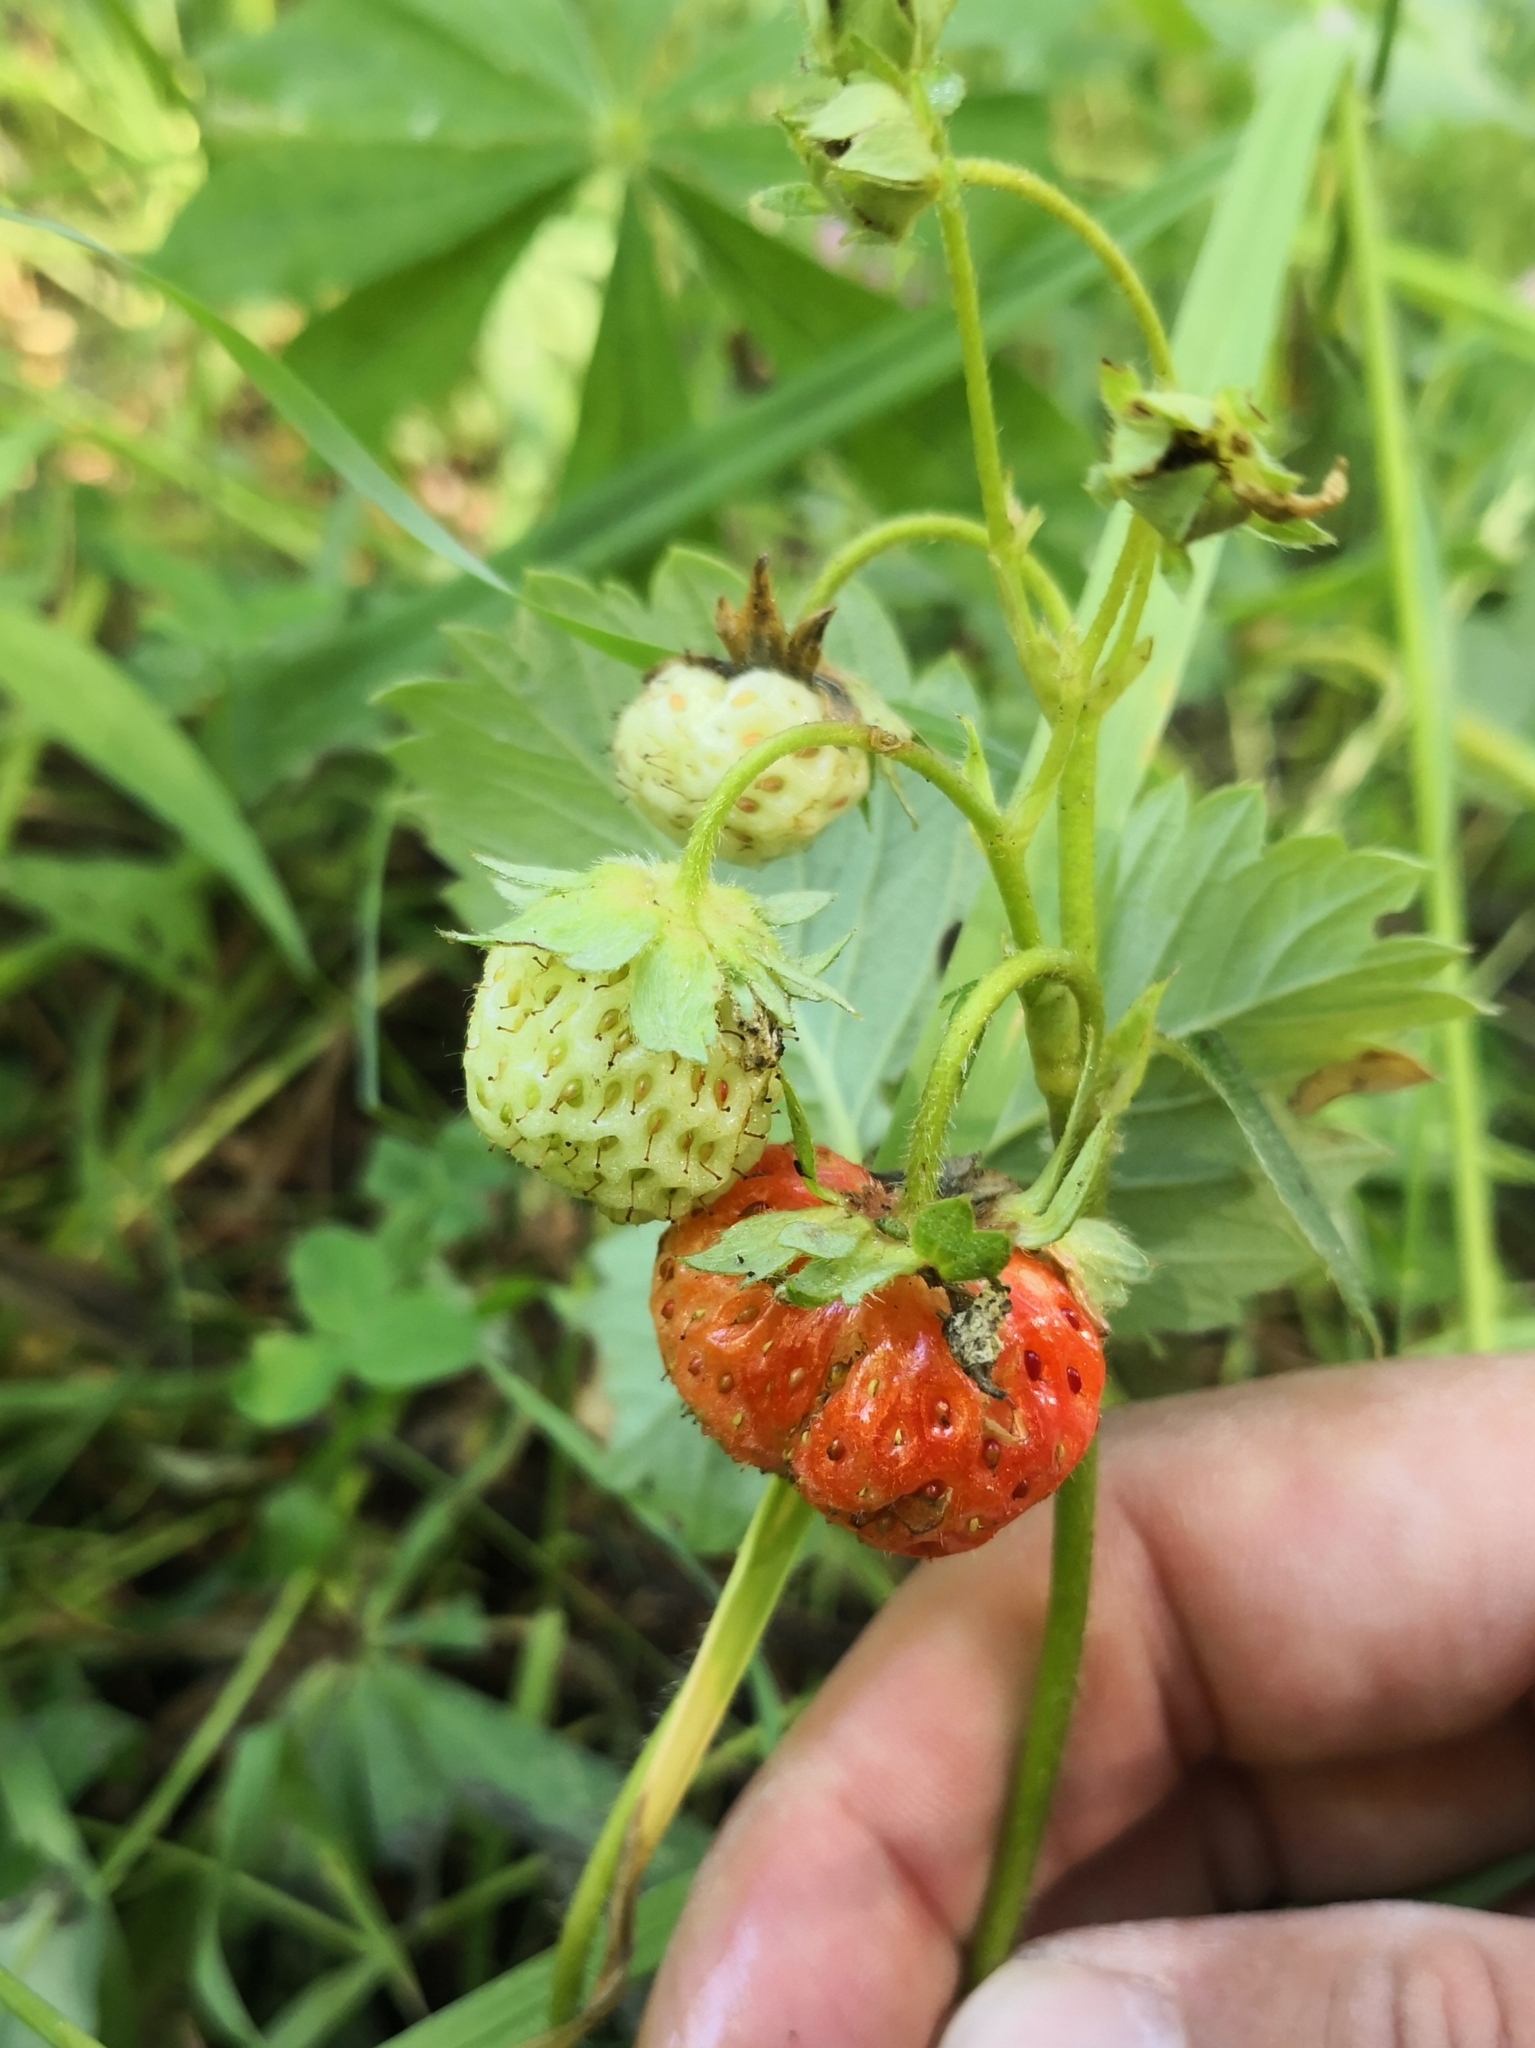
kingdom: Plantae
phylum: Tracheophyta
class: Magnoliopsida
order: Rosales
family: Rosaceae
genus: Fragaria
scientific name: Fragaria ananassa
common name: Garden strawberry
